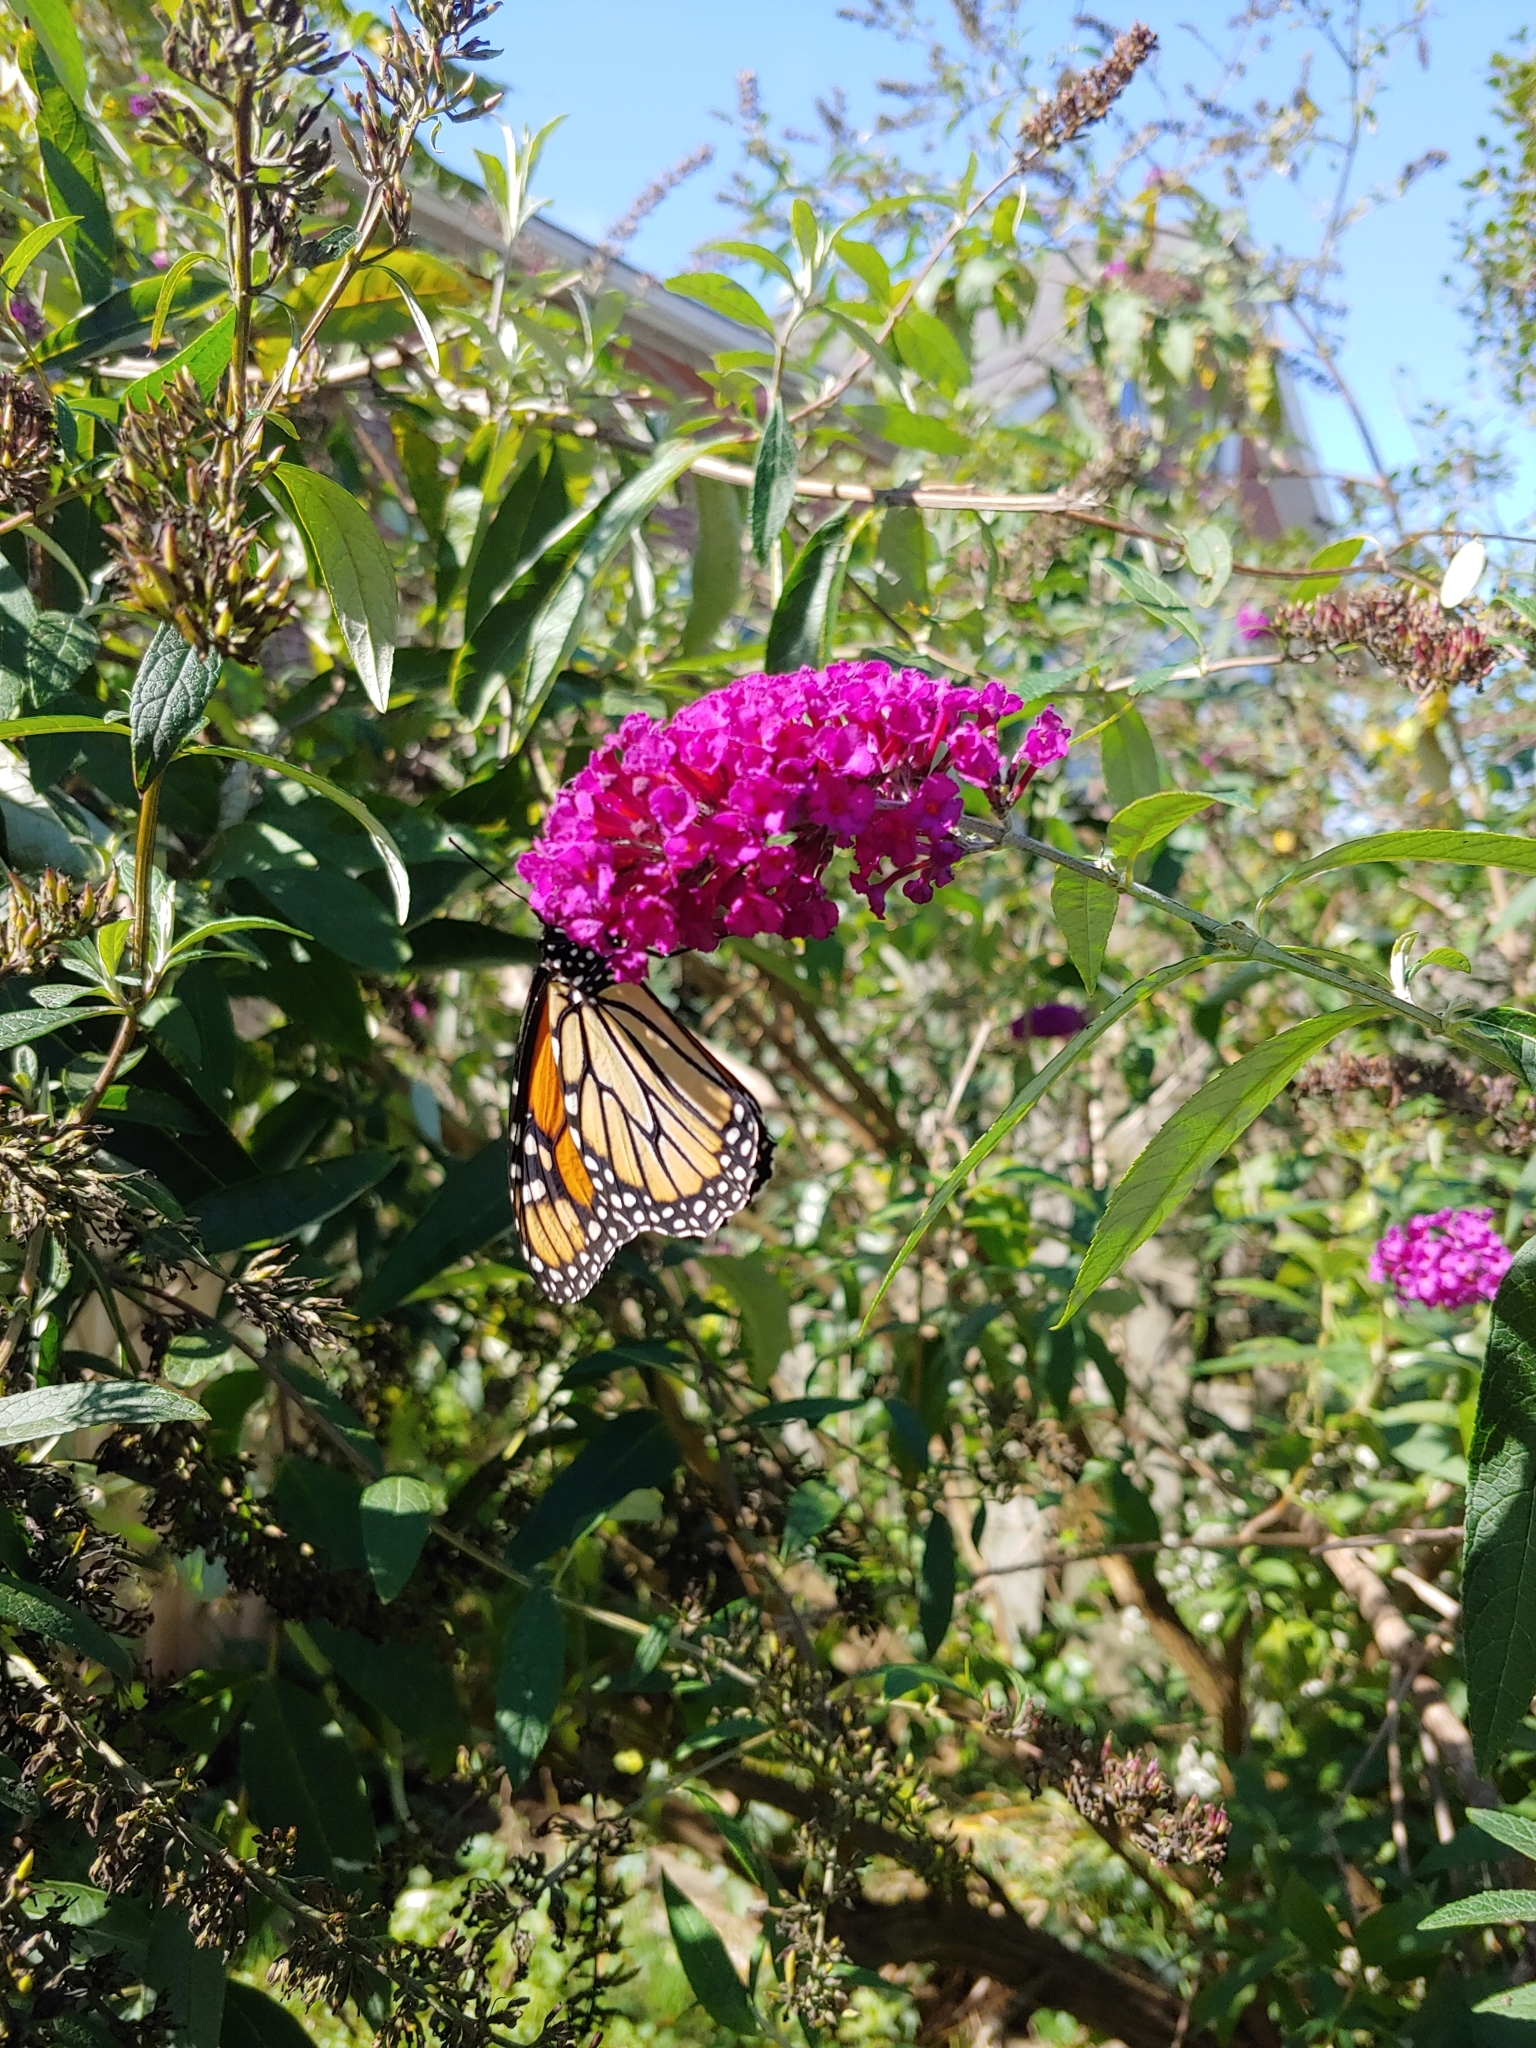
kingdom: Animalia
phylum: Arthropoda
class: Insecta
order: Lepidoptera
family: Nymphalidae
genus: Danaus
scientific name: Danaus plexippus
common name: Monarch
